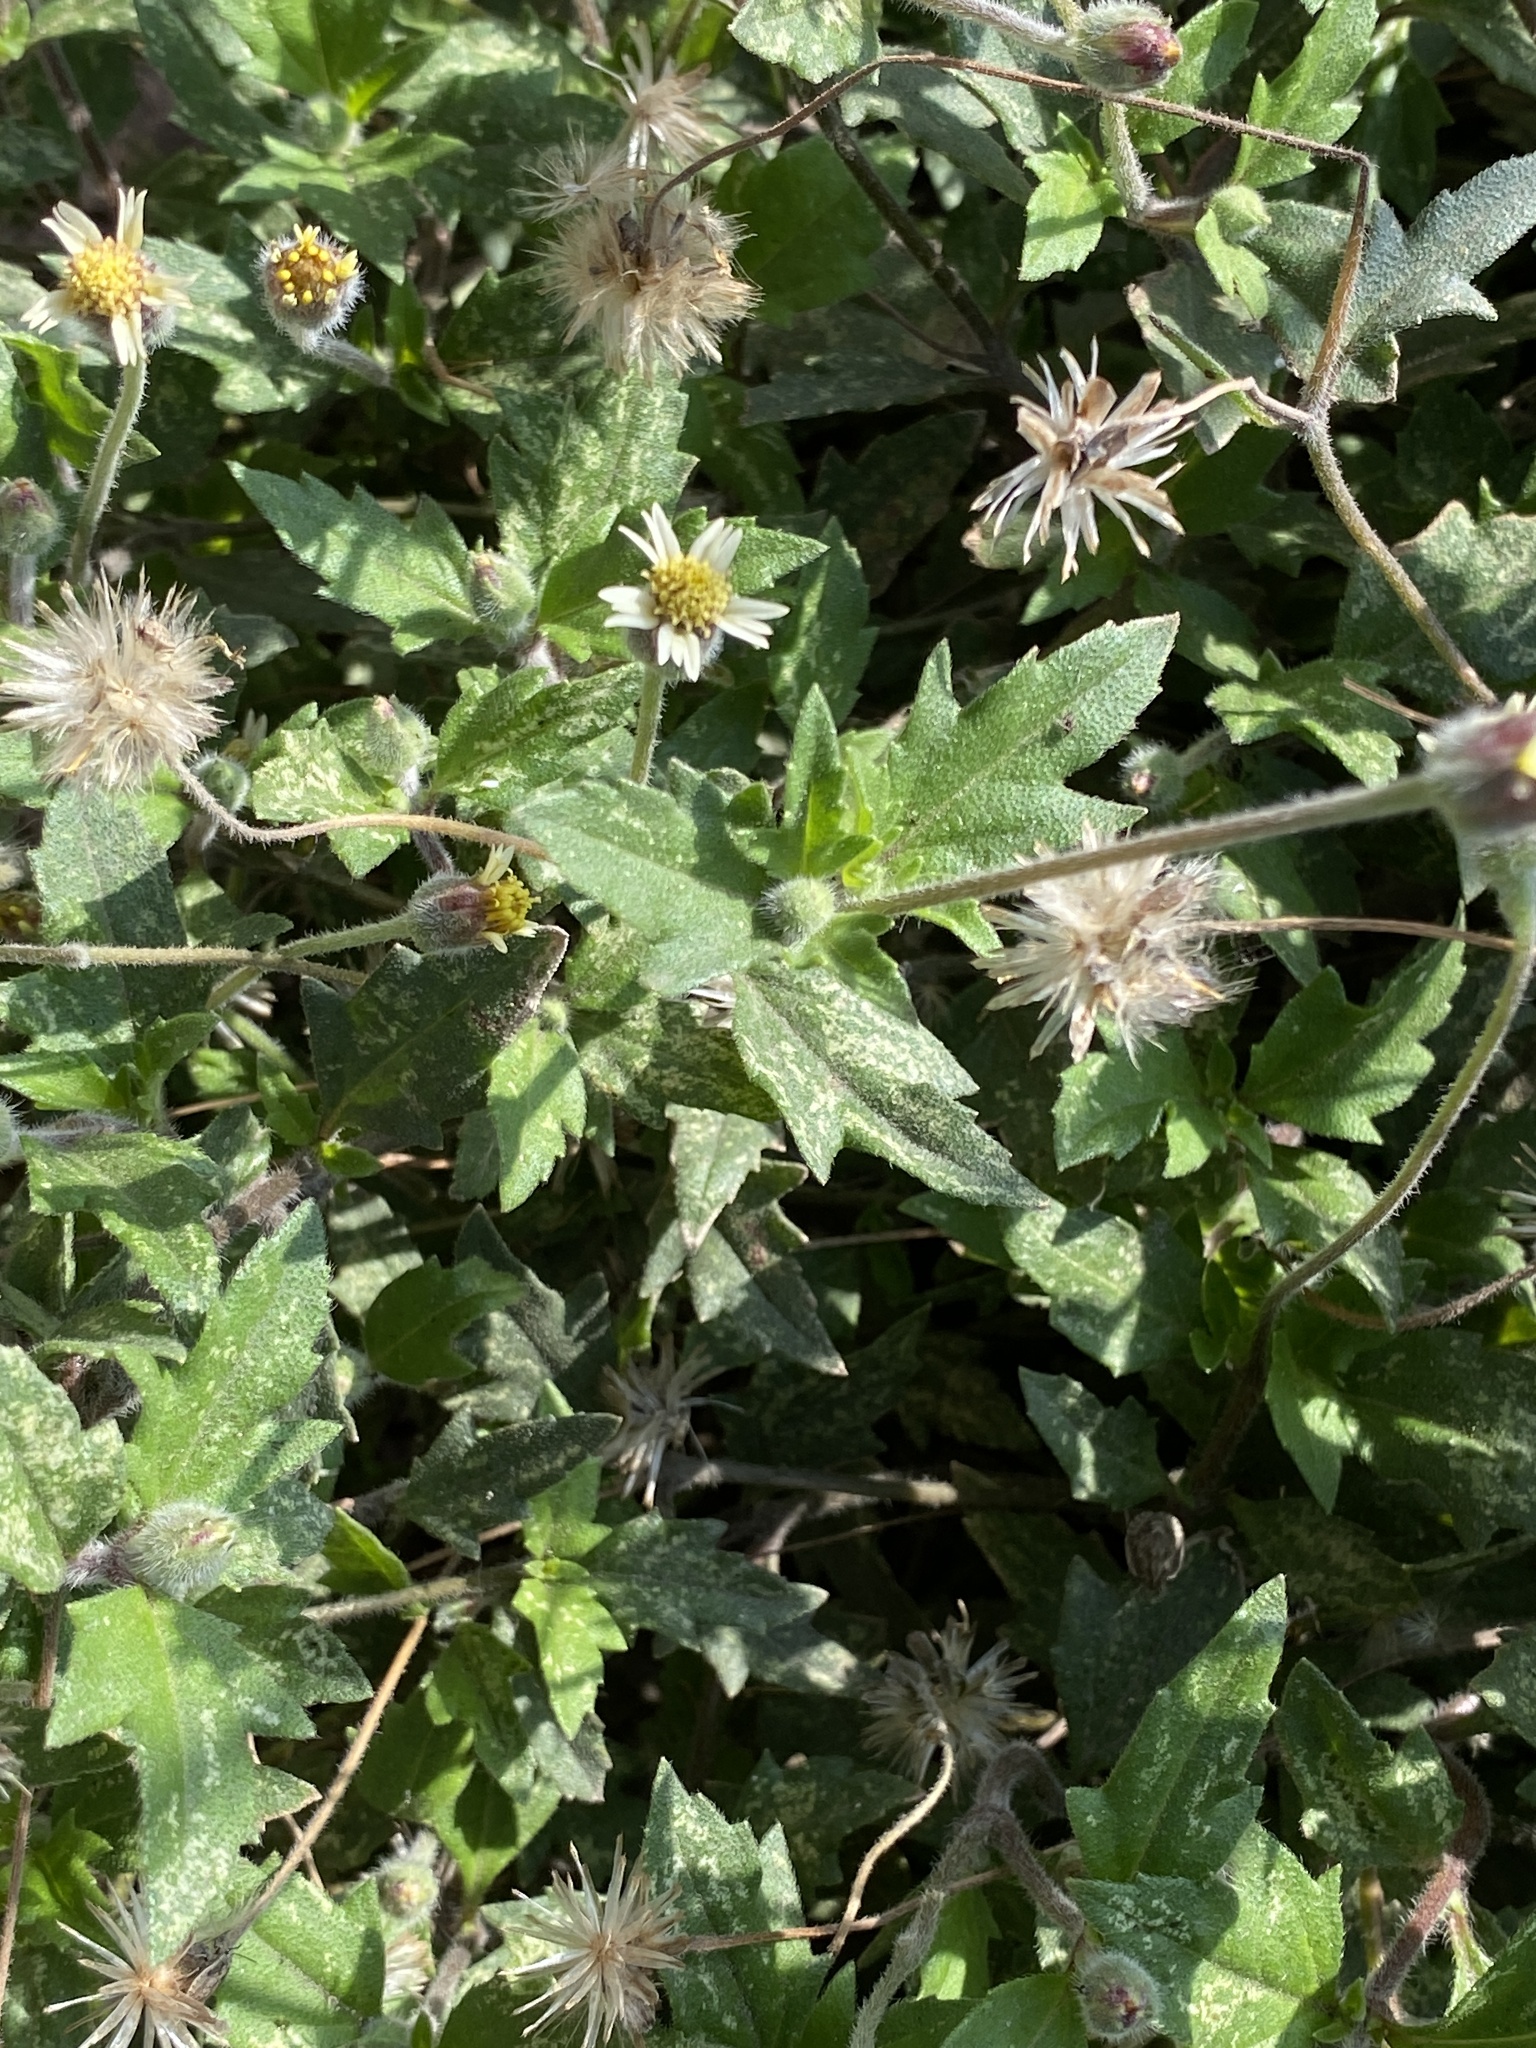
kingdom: Plantae
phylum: Tracheophyta
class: Magnoliopsida
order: Asterales
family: Asteraceae
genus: Tridax
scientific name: Tridax procumbens
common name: Coatbuttons
